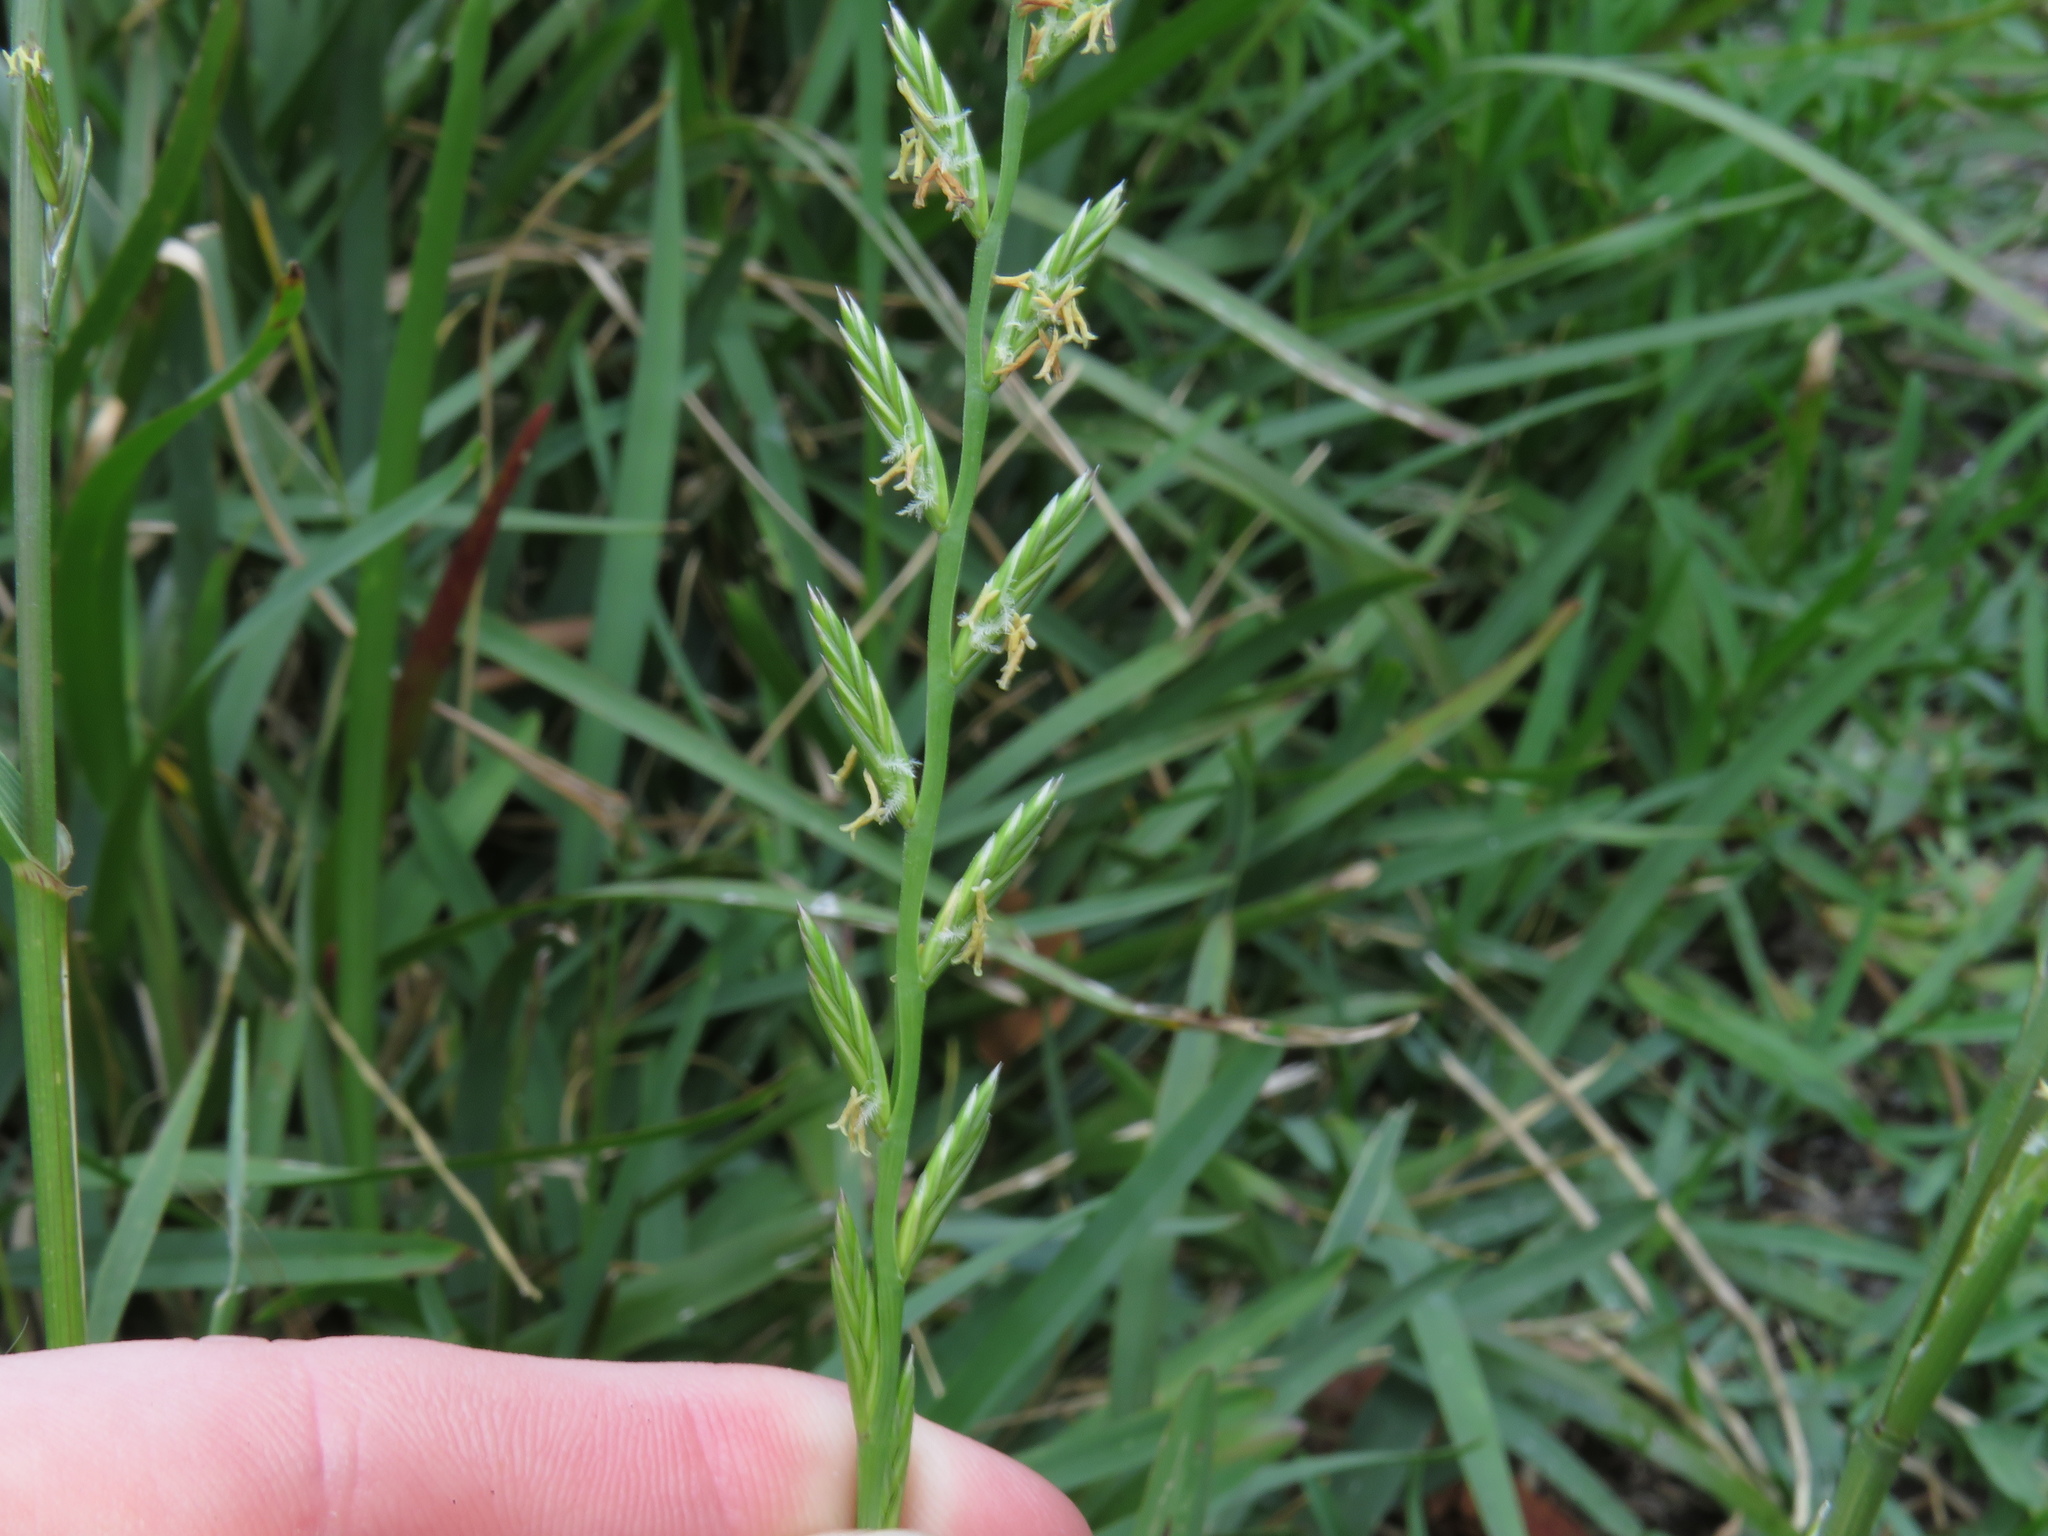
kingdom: Plantae
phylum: Tracheophyta
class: Liliopsida
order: Poales
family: Poaceae
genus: Lolium
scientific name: Lolium
